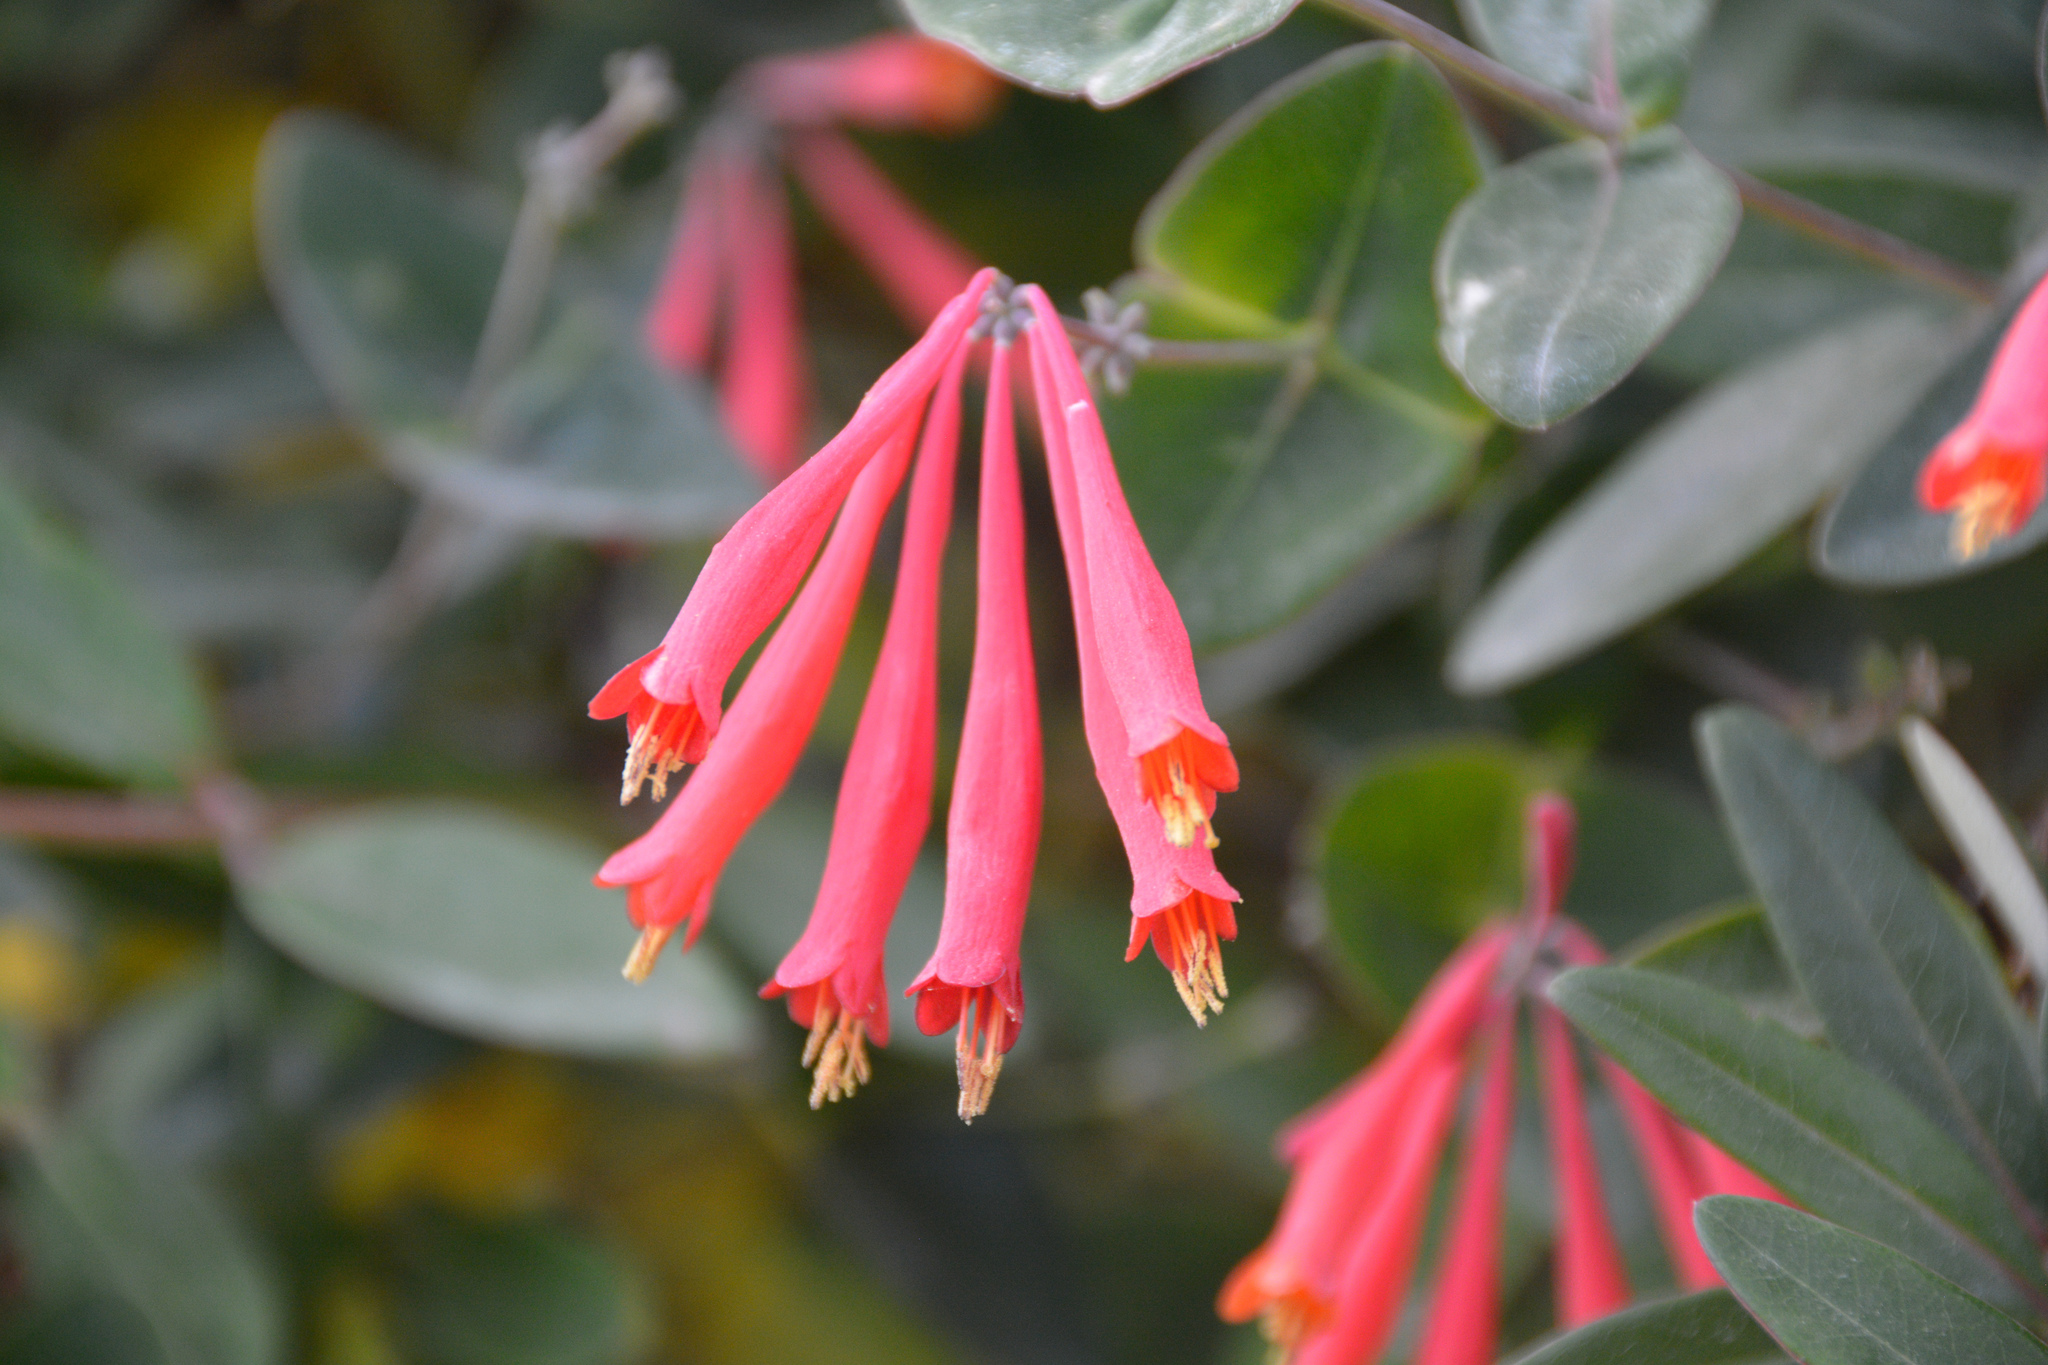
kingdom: Plantae
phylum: Tracheophyta
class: Magnoliopsida
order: Dipsacales
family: Caprifoliaceae
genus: Lonicera
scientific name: Lonicera sempervirens
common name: Coral honeysuckle
